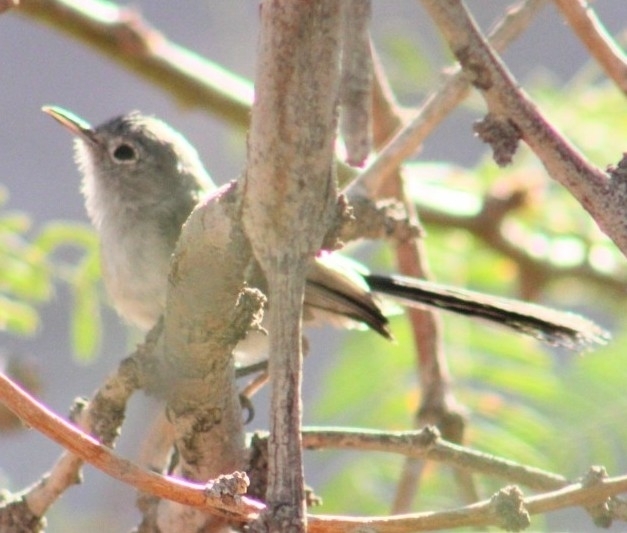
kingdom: Animalia
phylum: Chordata
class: Aves
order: Passeriformes
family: Polioptilidae
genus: Polioptila
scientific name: Polioptila melanura
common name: Black-tailed gnatcatcher
